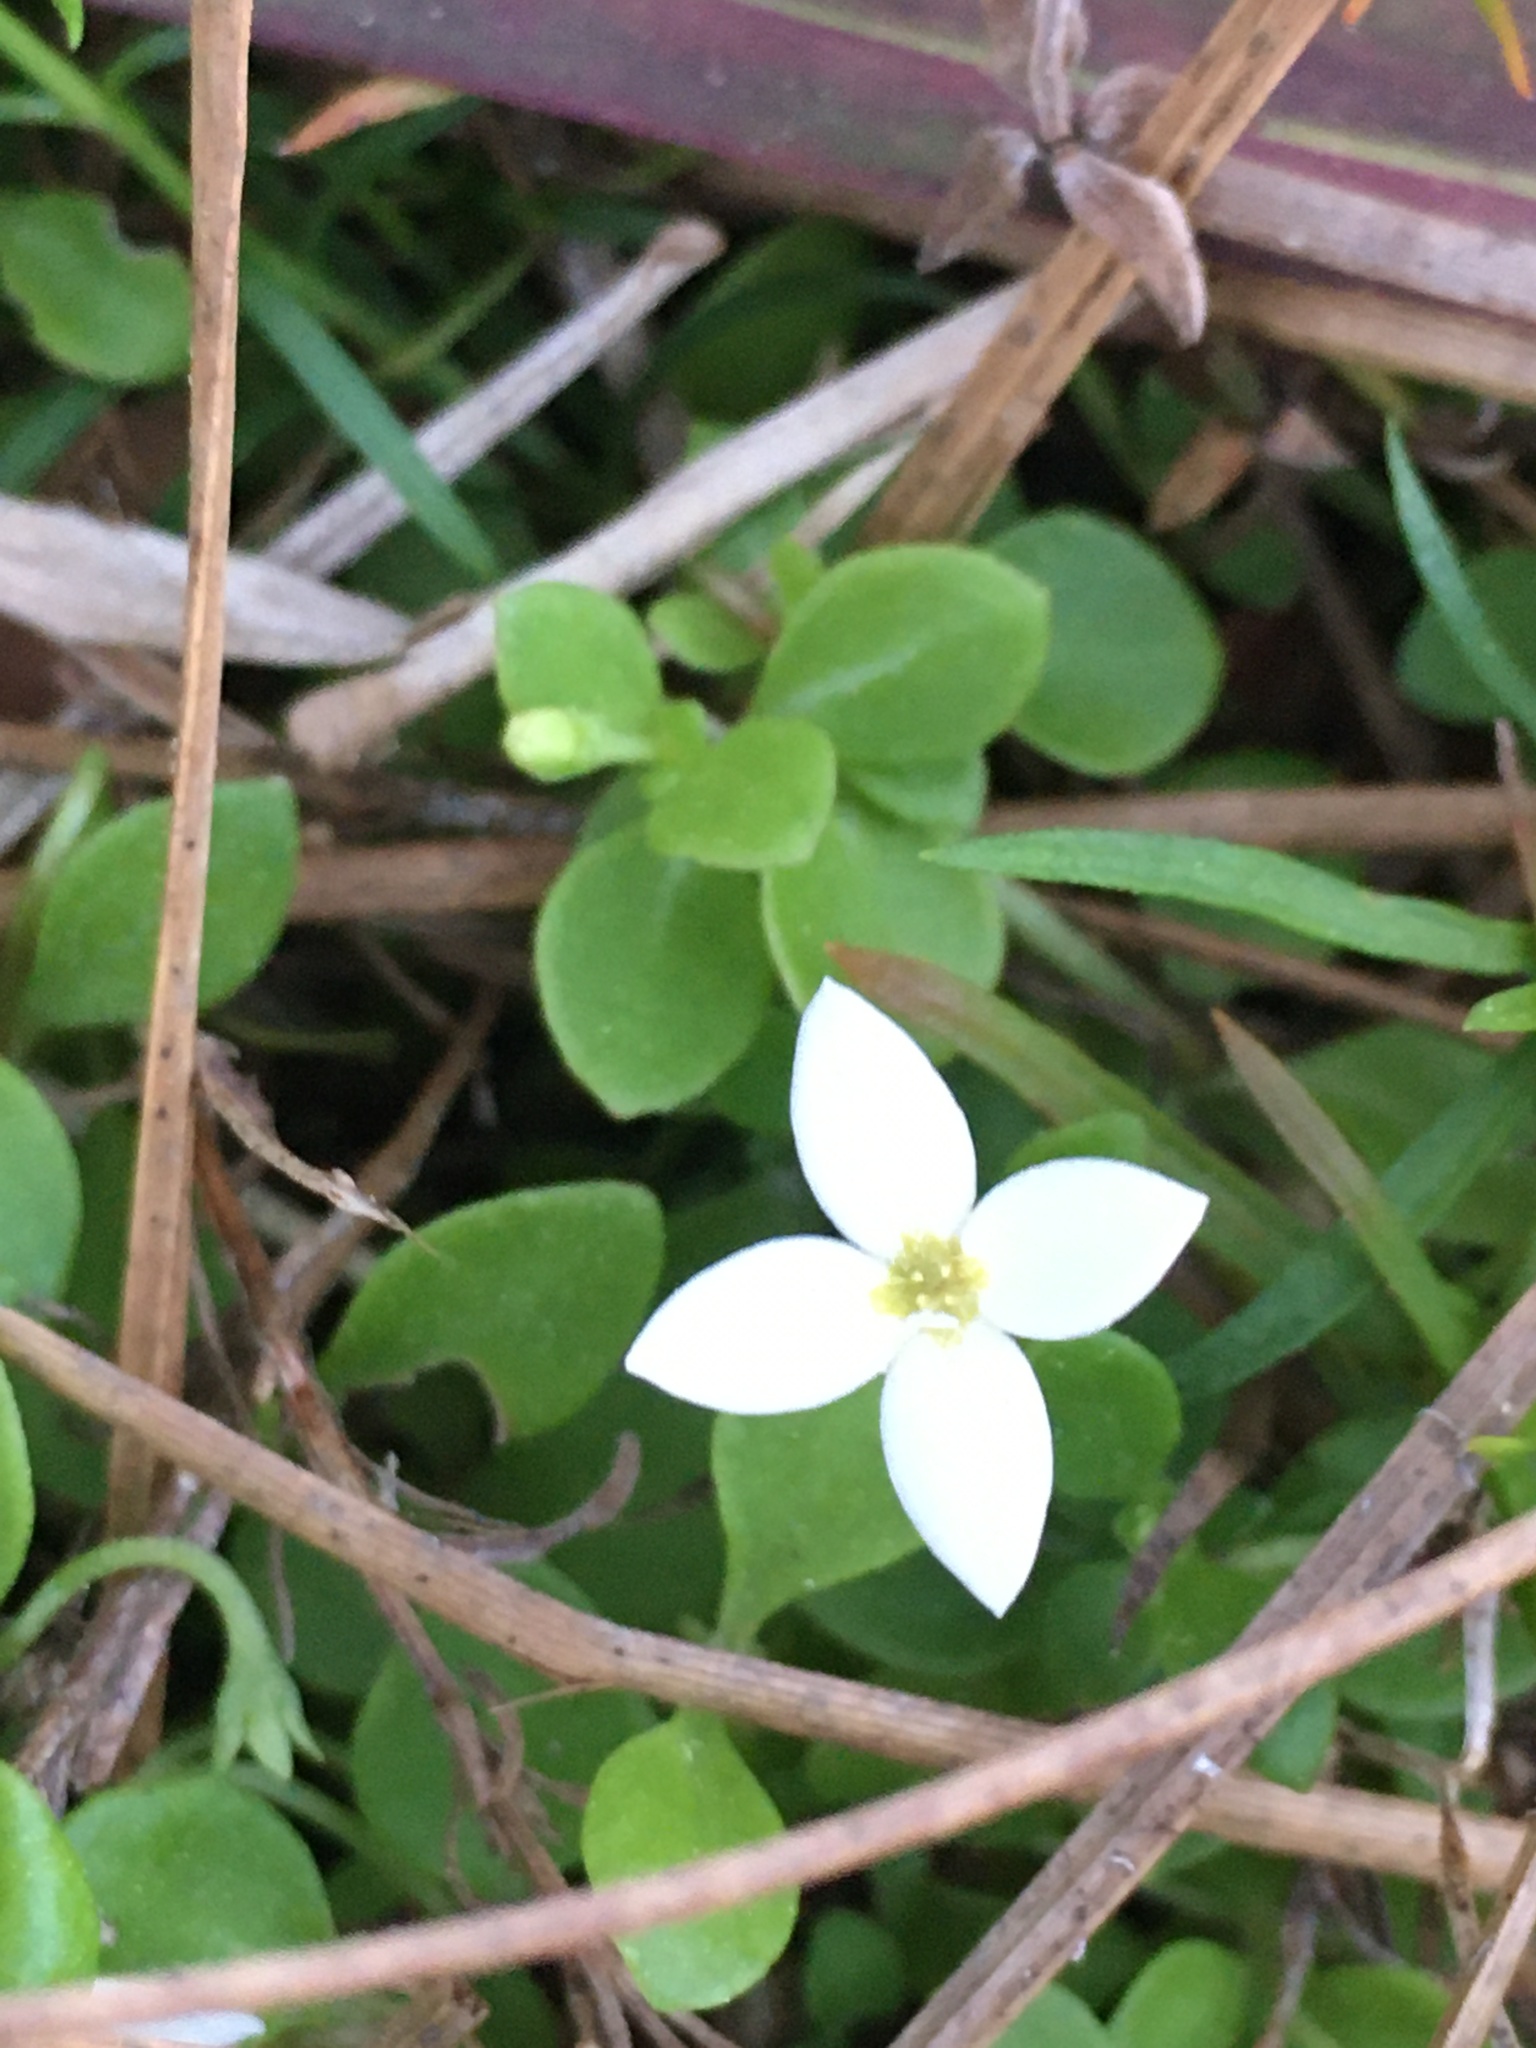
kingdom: Plantae
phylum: Tracheophyta
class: Magnoliopsida
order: Gentianales
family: Rubiaceae
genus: Houstonia
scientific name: Houstonia procumbens
